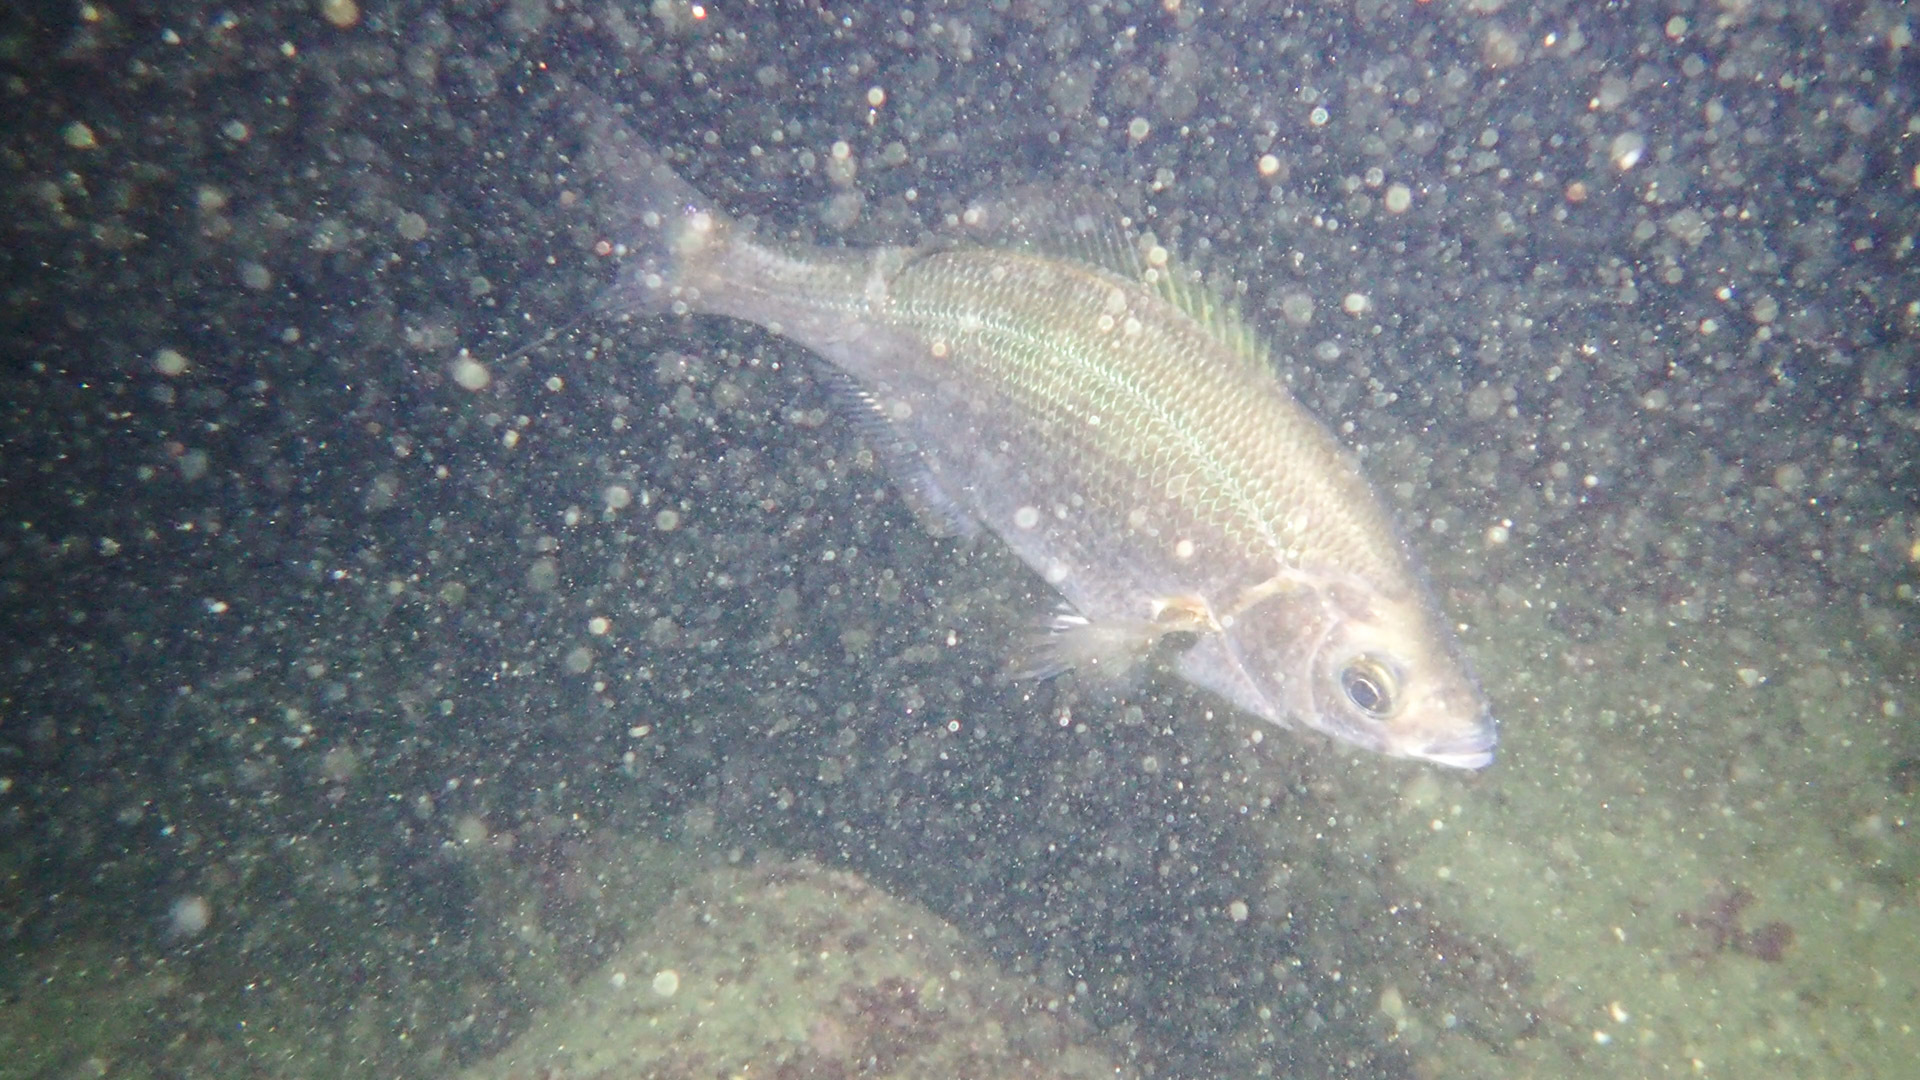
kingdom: Animalia
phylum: Chordata
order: Perciformes
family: Embiotocidae
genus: Phanerodon
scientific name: Phanerodon atripes
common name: Sharpnose seaperch
